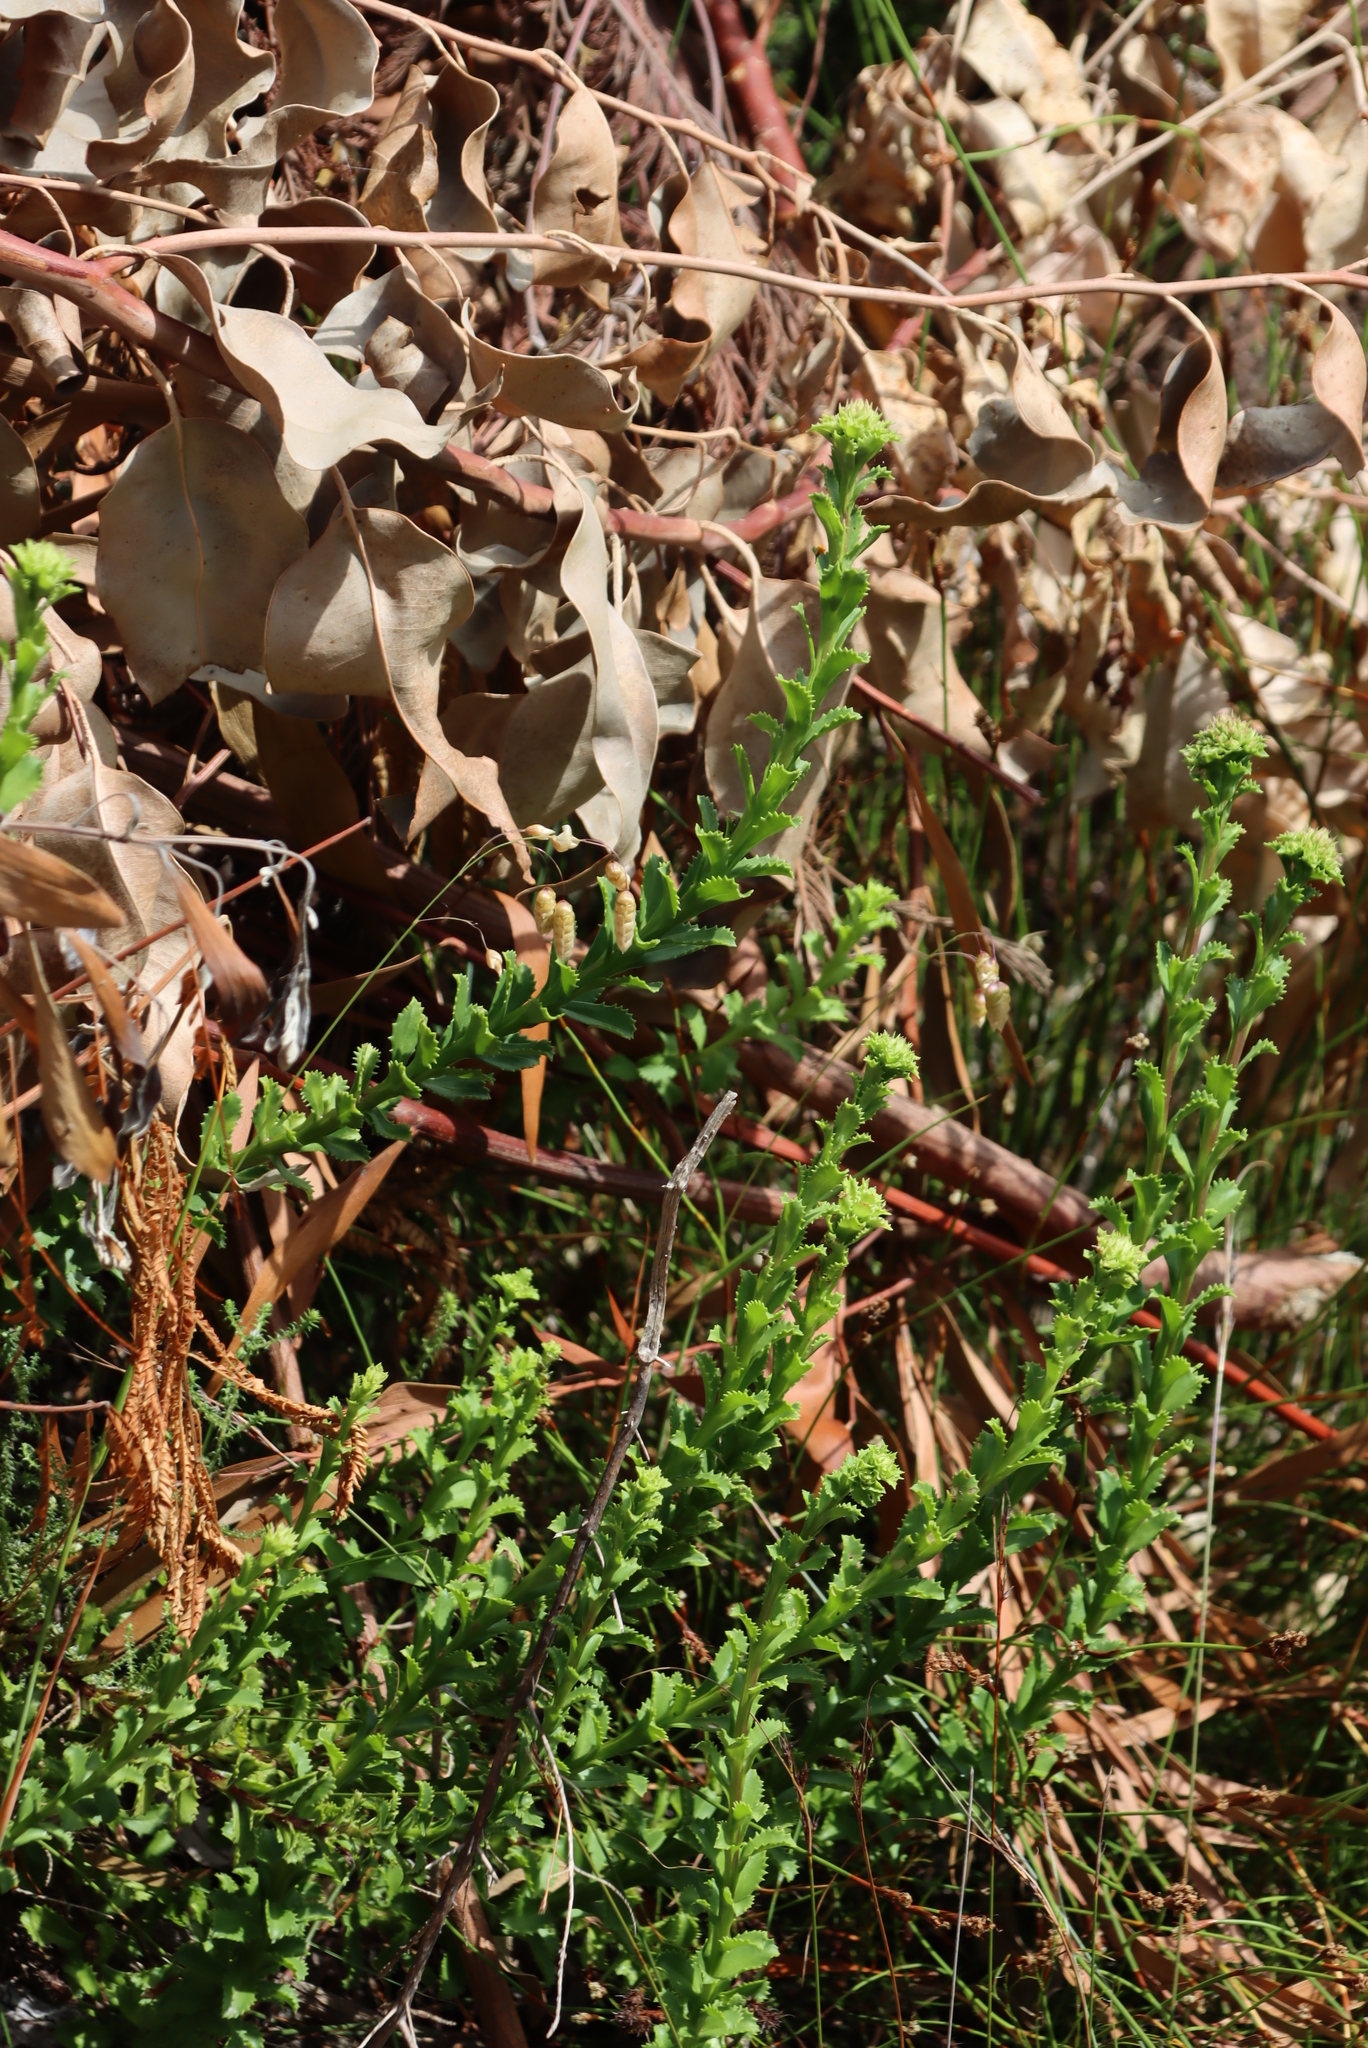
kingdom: Plantae
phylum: Tracheophyta
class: Magnoliopsida
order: Lamiales
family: Scrophulariaceae
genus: Pseudoselago
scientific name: Pseudoselago serrata
